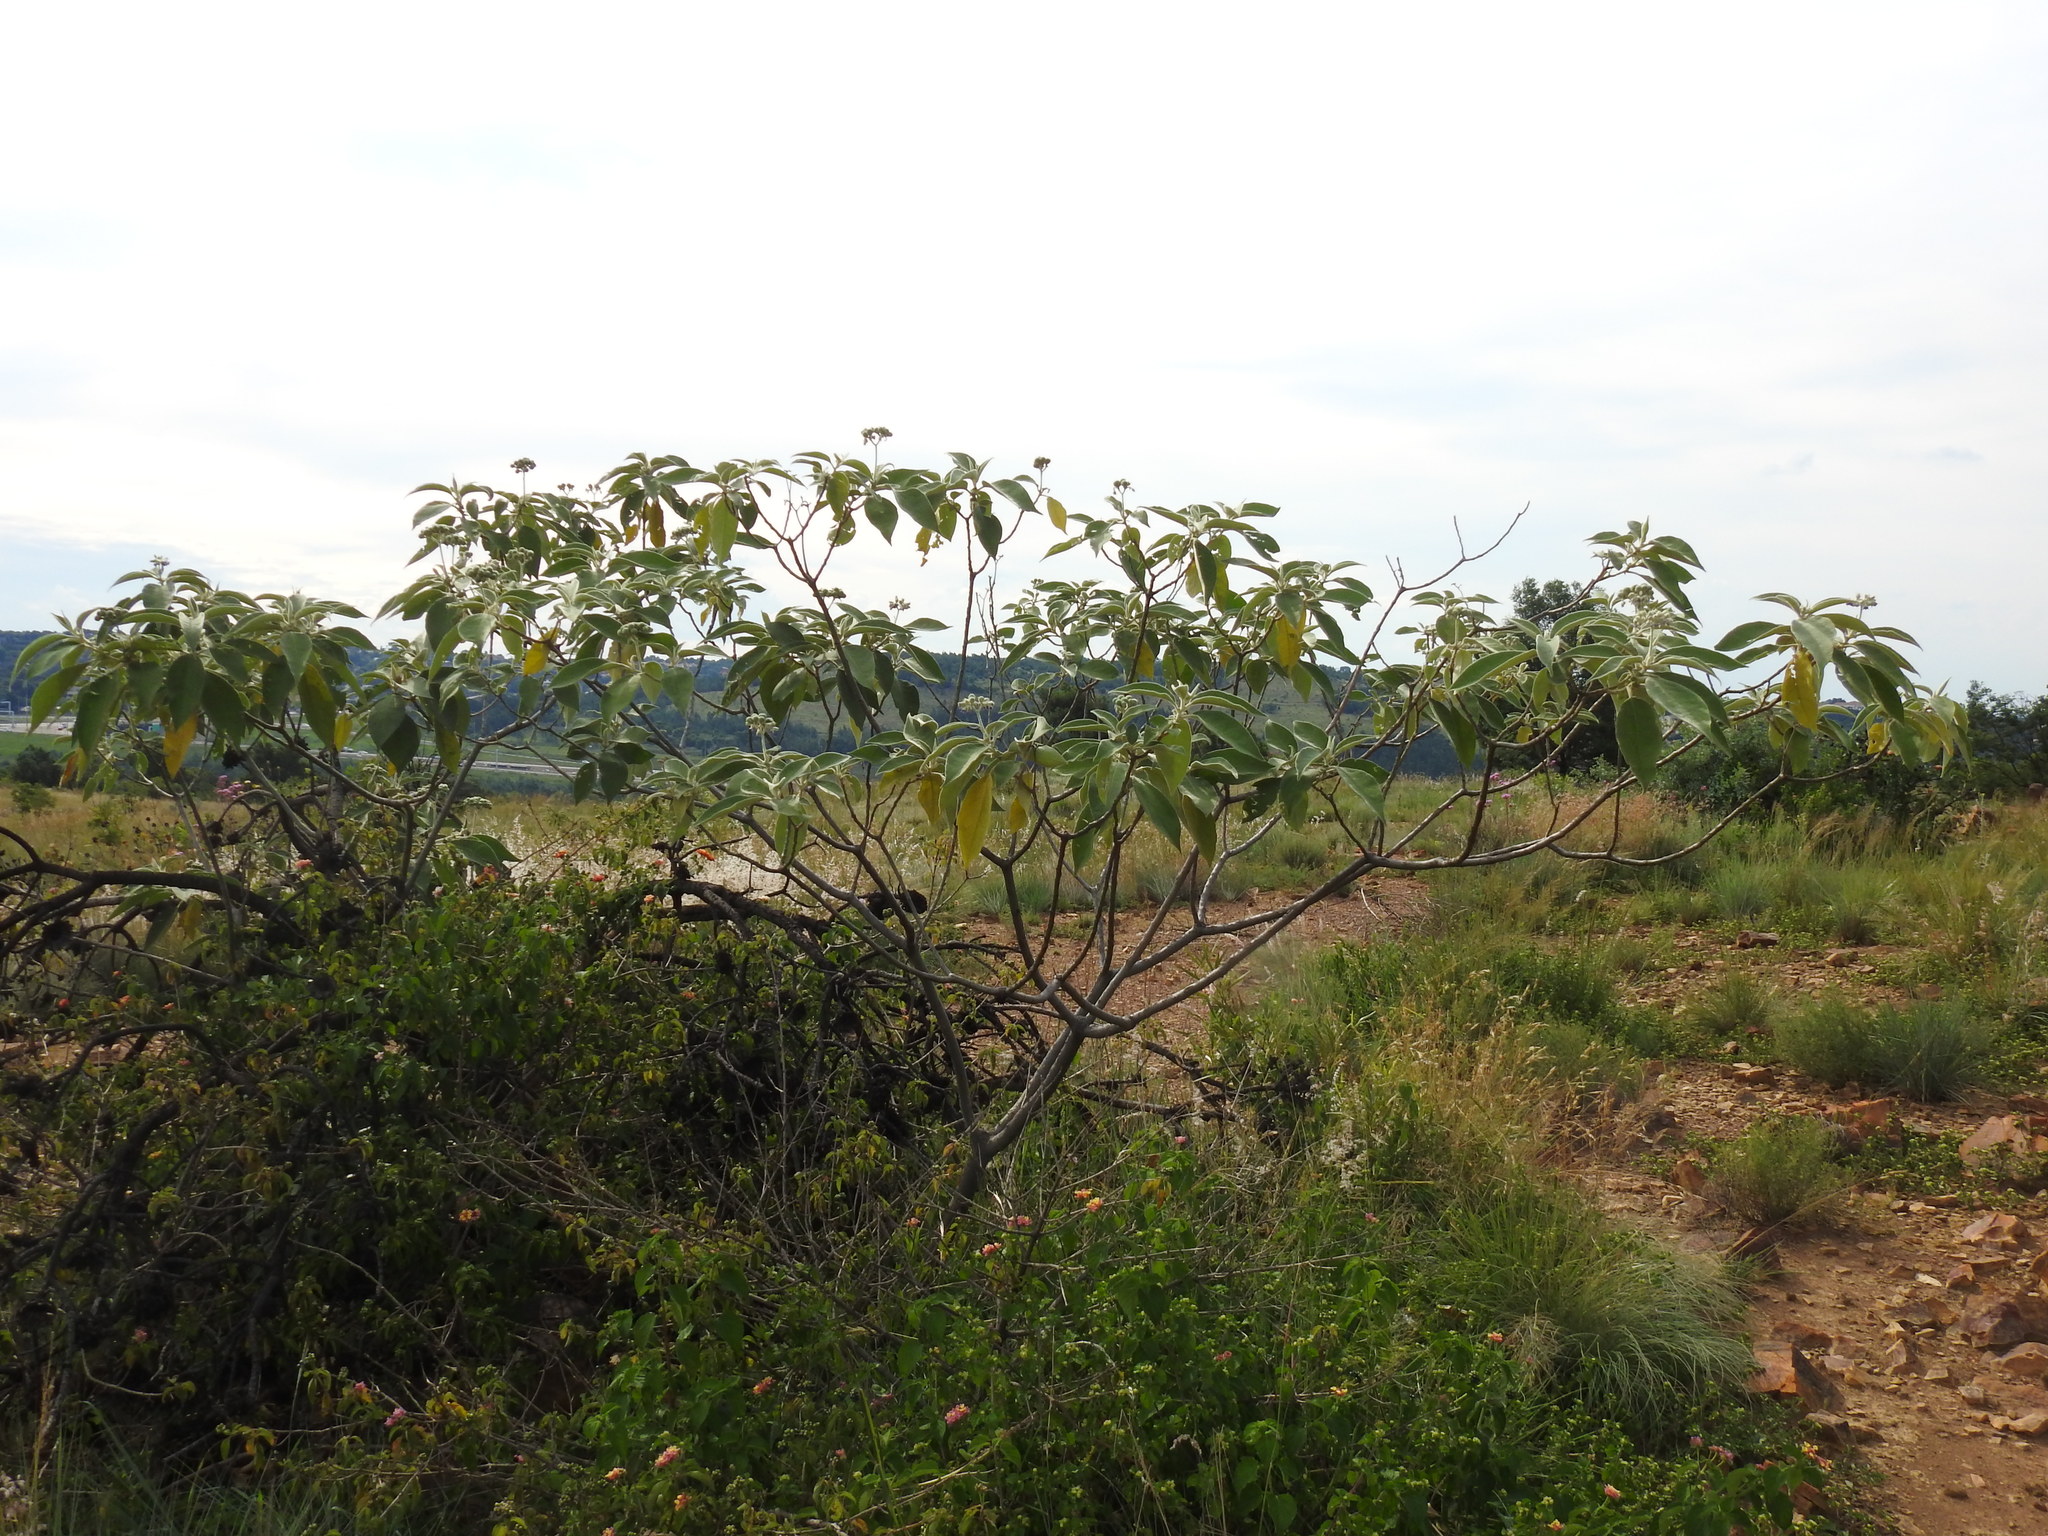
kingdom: Plantae
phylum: Tracheophyta
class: Magnoliopsida
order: Solanales
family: Solanaceae
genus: Solanum
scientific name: Solanum mauritianum
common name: Earleaf nightshade
